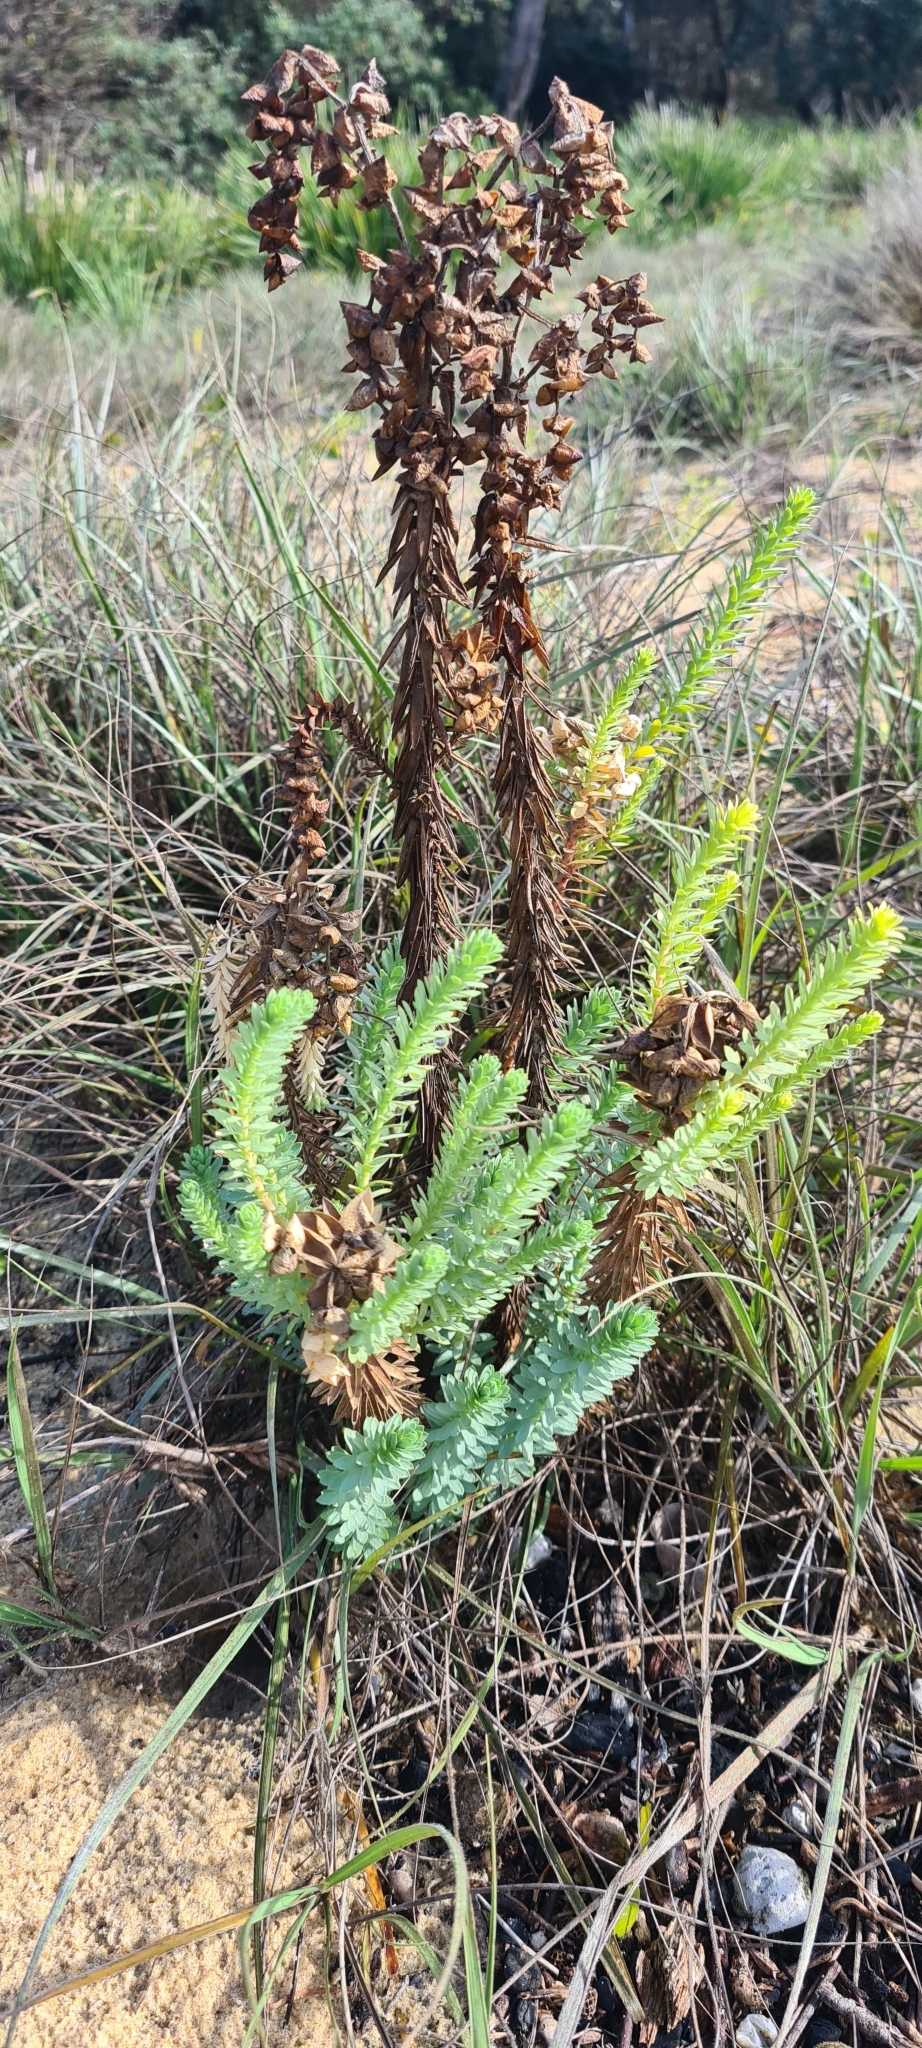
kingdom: Plantae
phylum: Tracheophyta
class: Magnoliopsida
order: Malpighiales
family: Euphorbiaceae
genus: Euphorbia
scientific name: Euphorbia paralias
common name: Sea spurge
